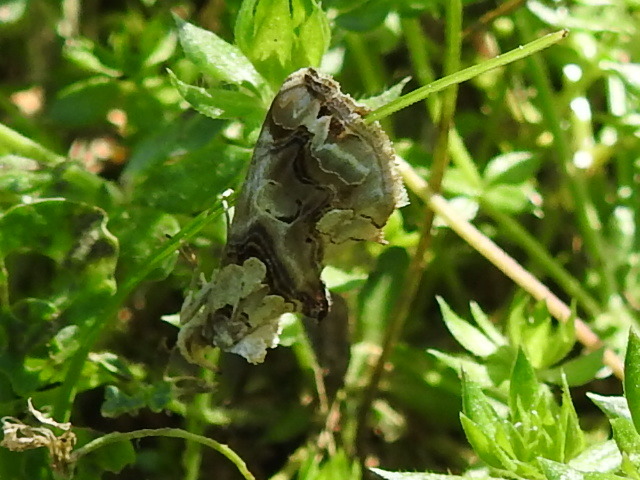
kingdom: Animalia
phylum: Arthropoda
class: Insecta
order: Lepidoptera
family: Erebidae
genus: Plusiodonta
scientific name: Plusiodonta compressipalpis
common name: Moonseed moth
